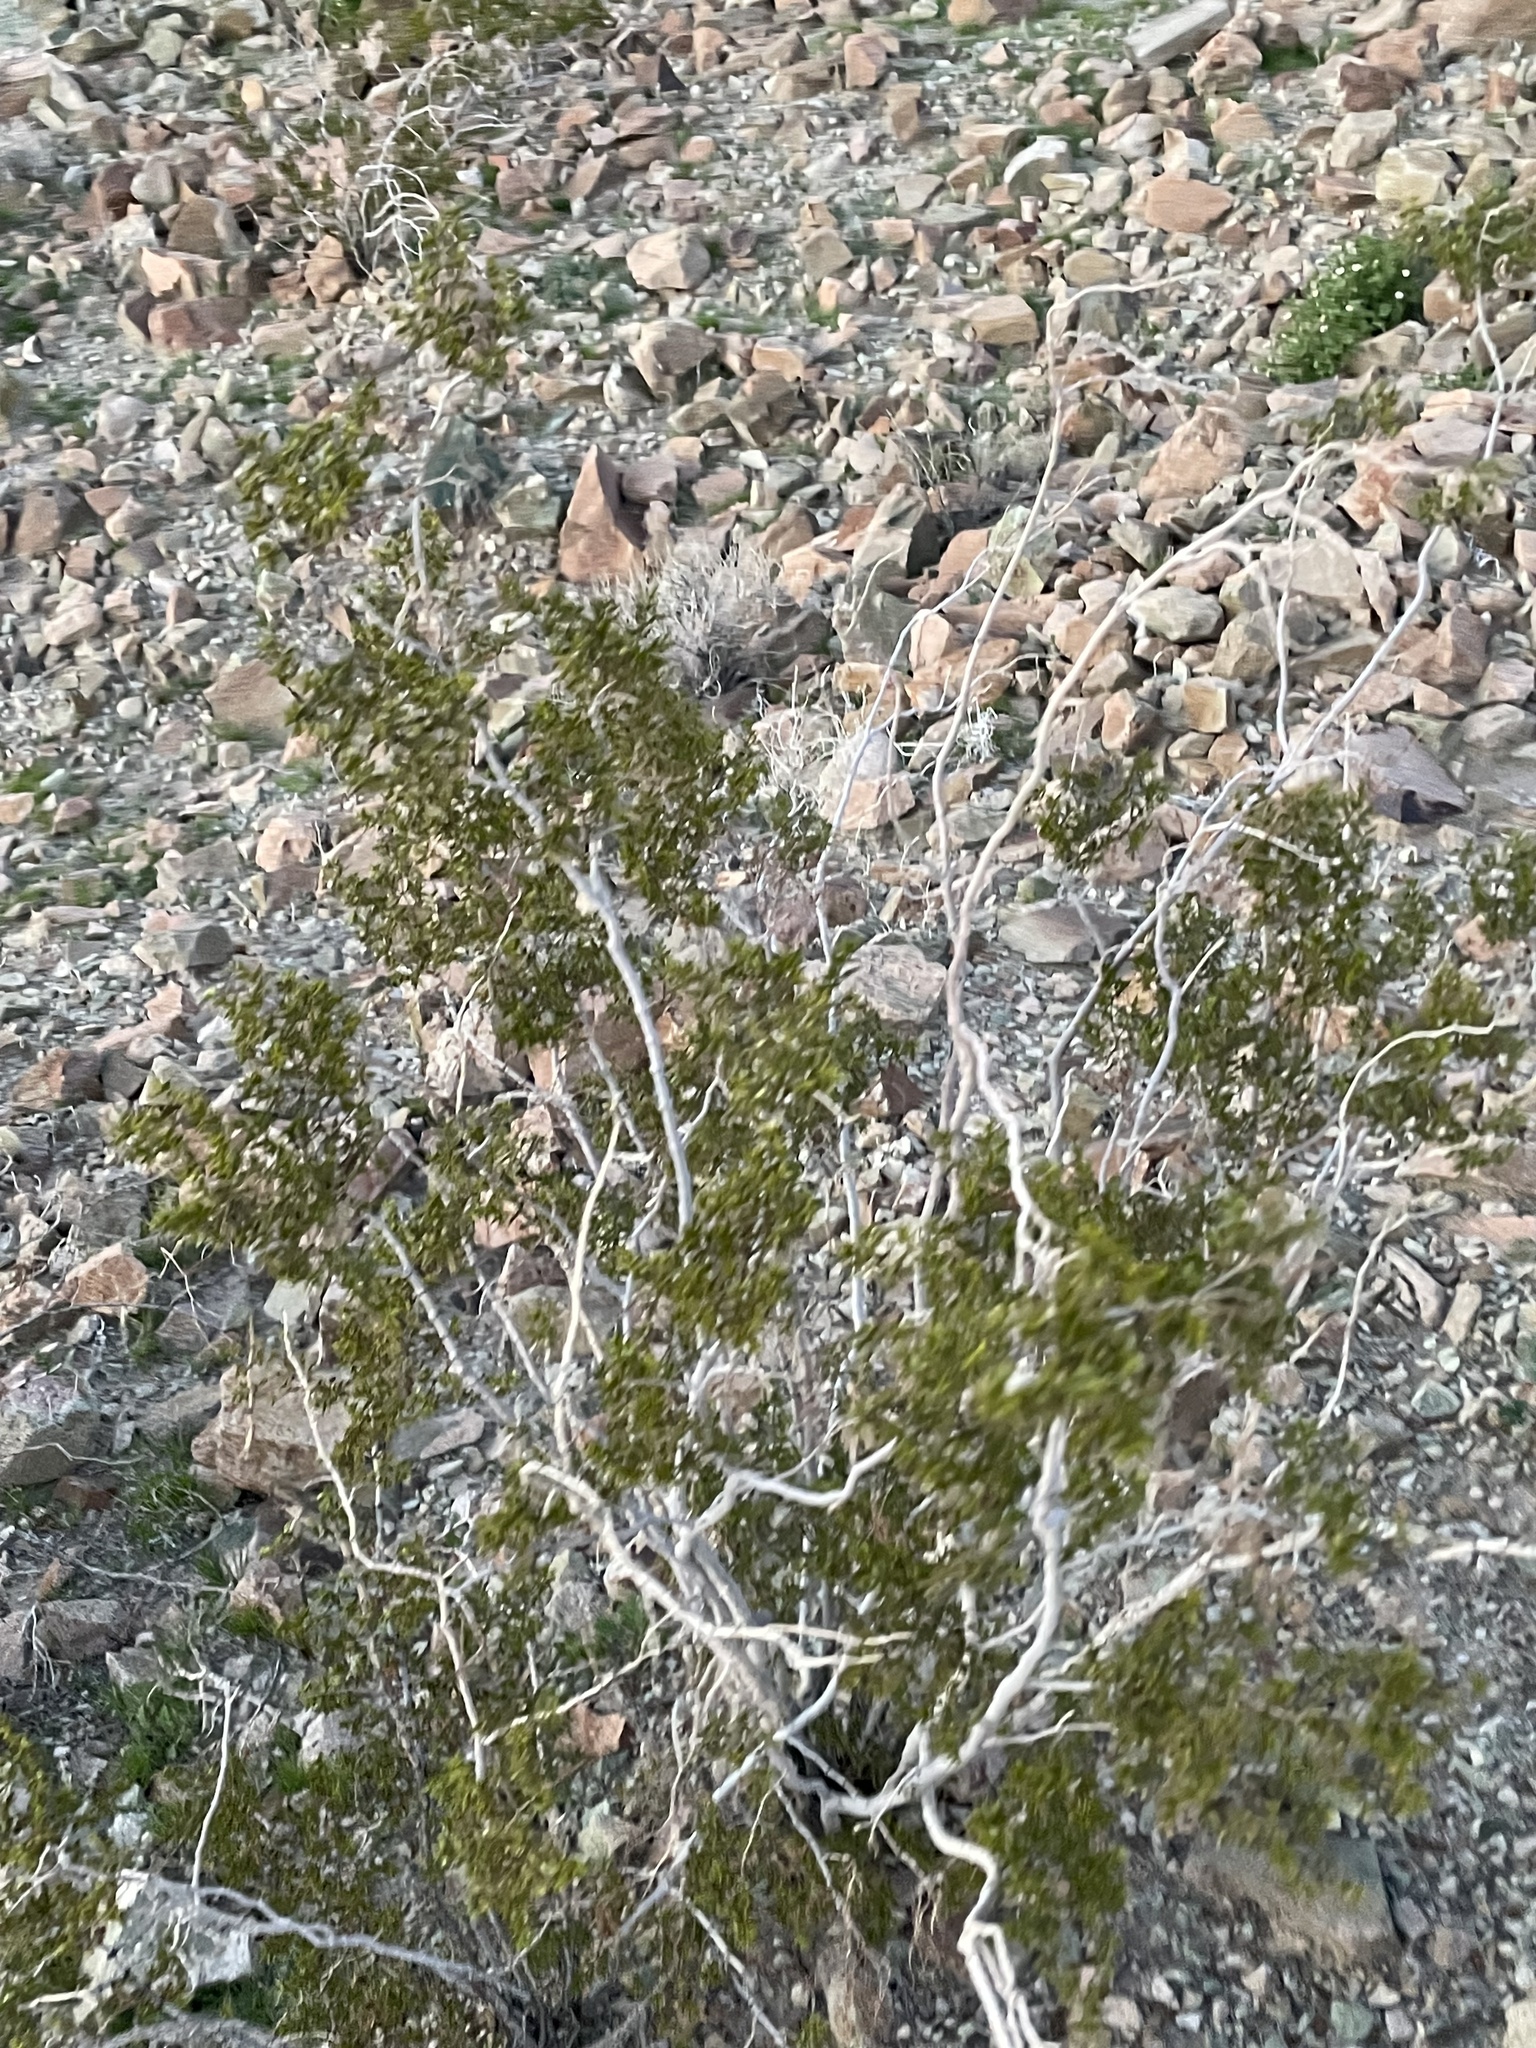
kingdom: Plantae
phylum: Tracheophyta
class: Magnoliopsida
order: Zygophyllales
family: Zygophyllaceae
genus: Larrea
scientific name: Larrea tridentata
